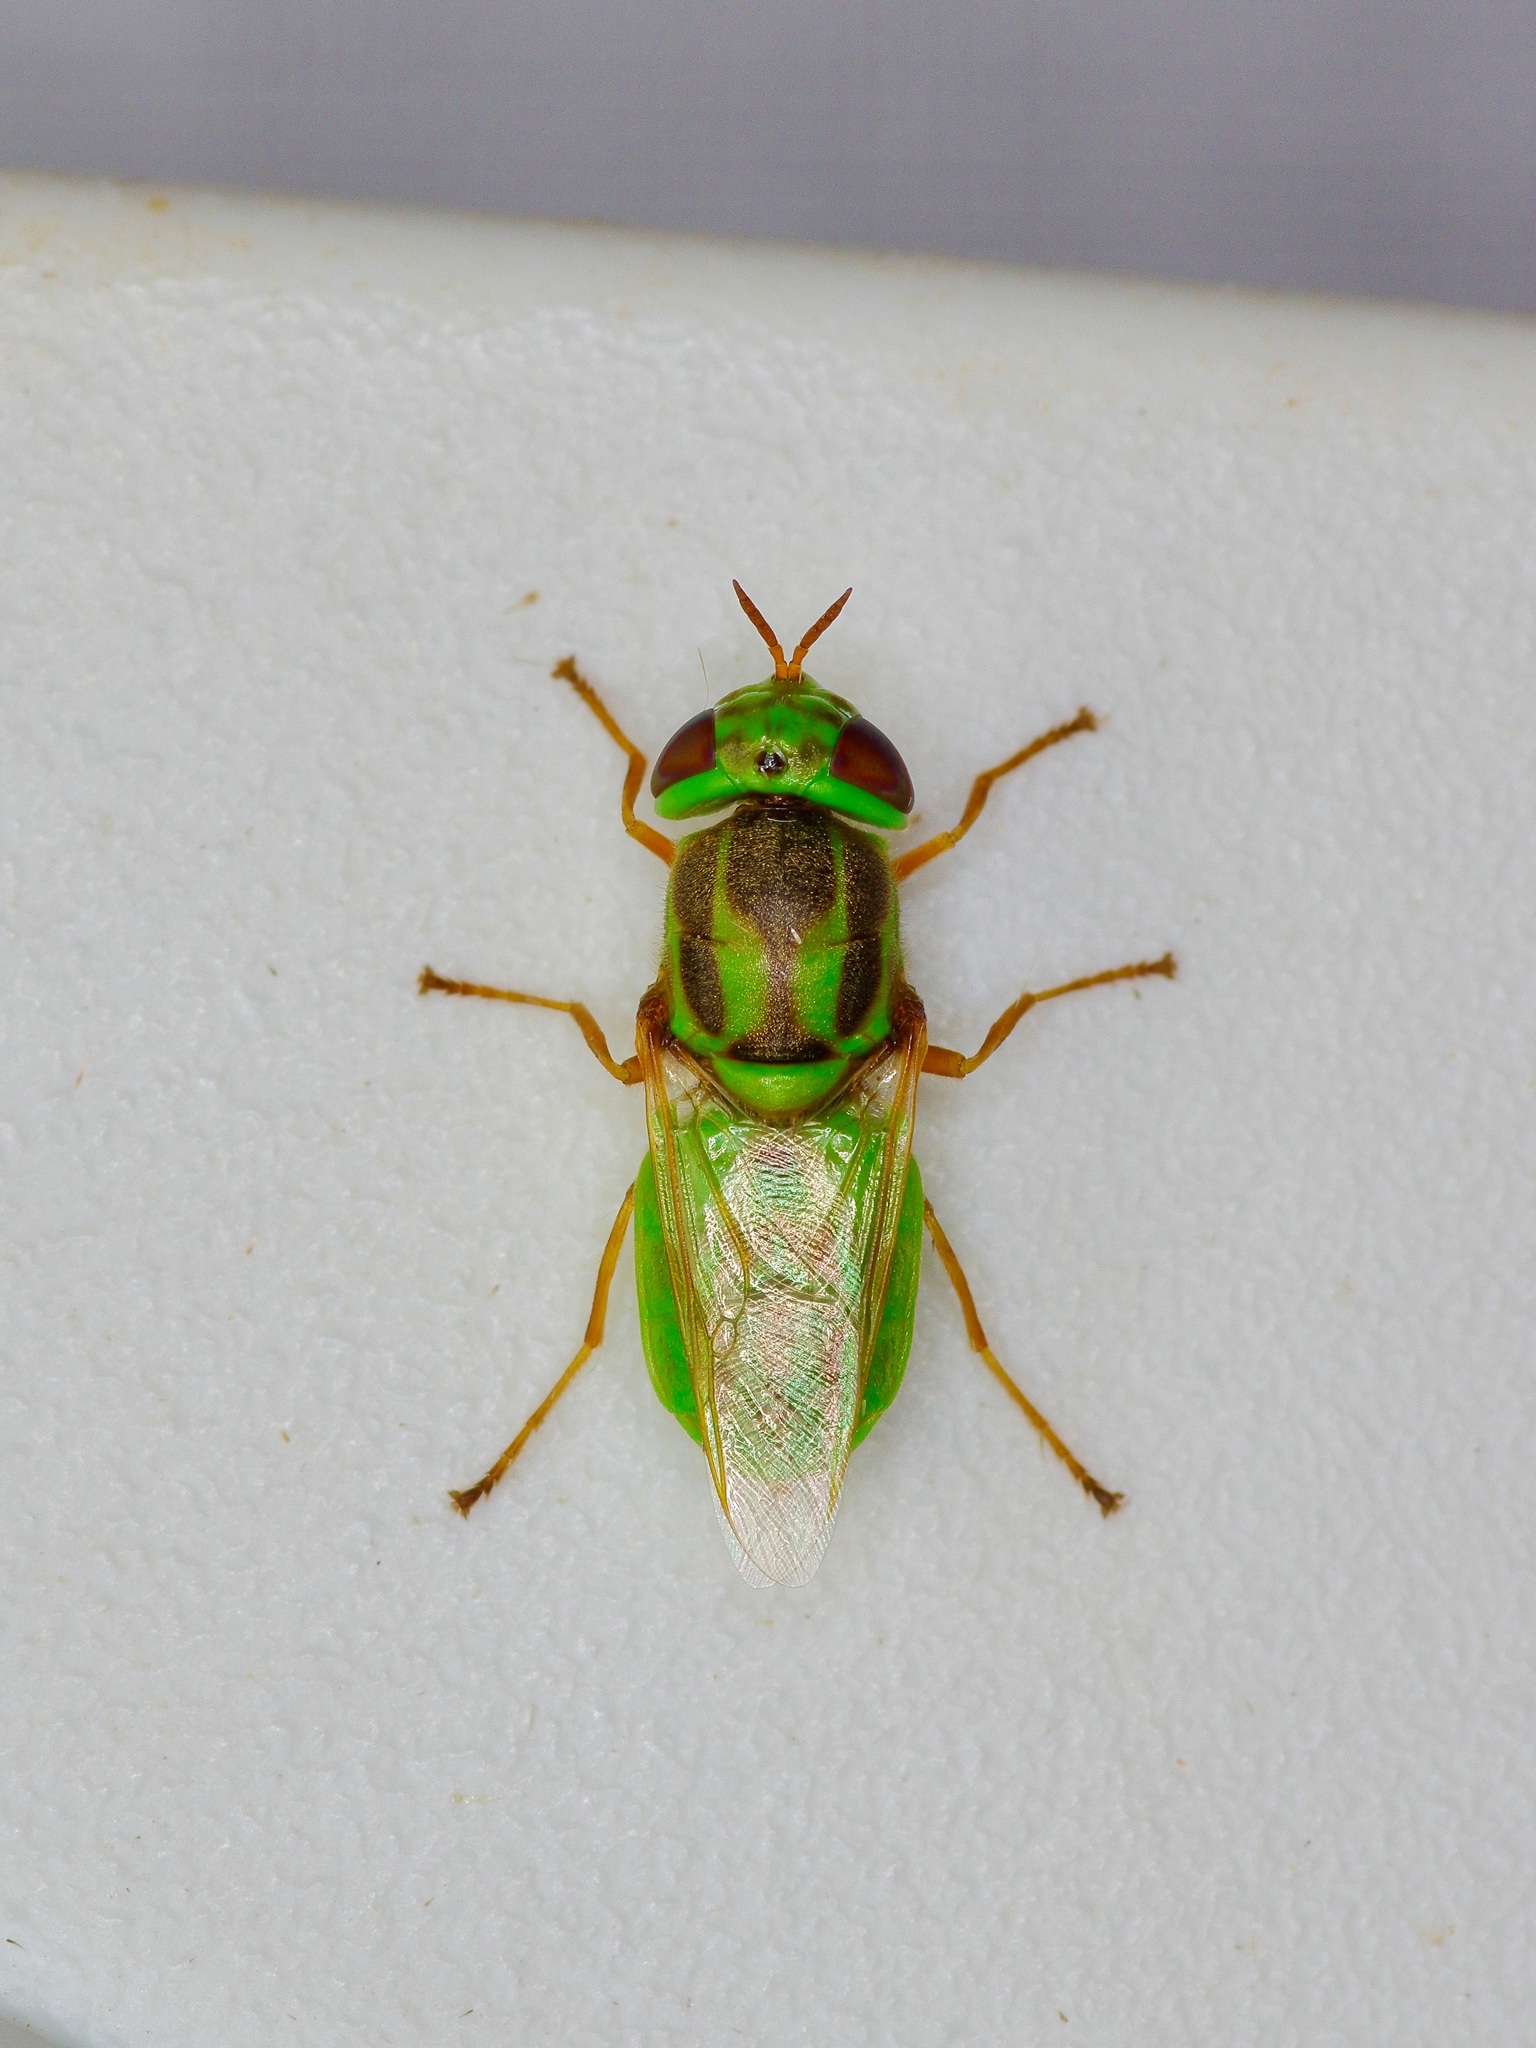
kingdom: Animalia
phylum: Arthropoda
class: Insecta
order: Diptera
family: Stratiomyidae
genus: Hedriodiscus
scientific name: Hedriodiscus trivittatus
